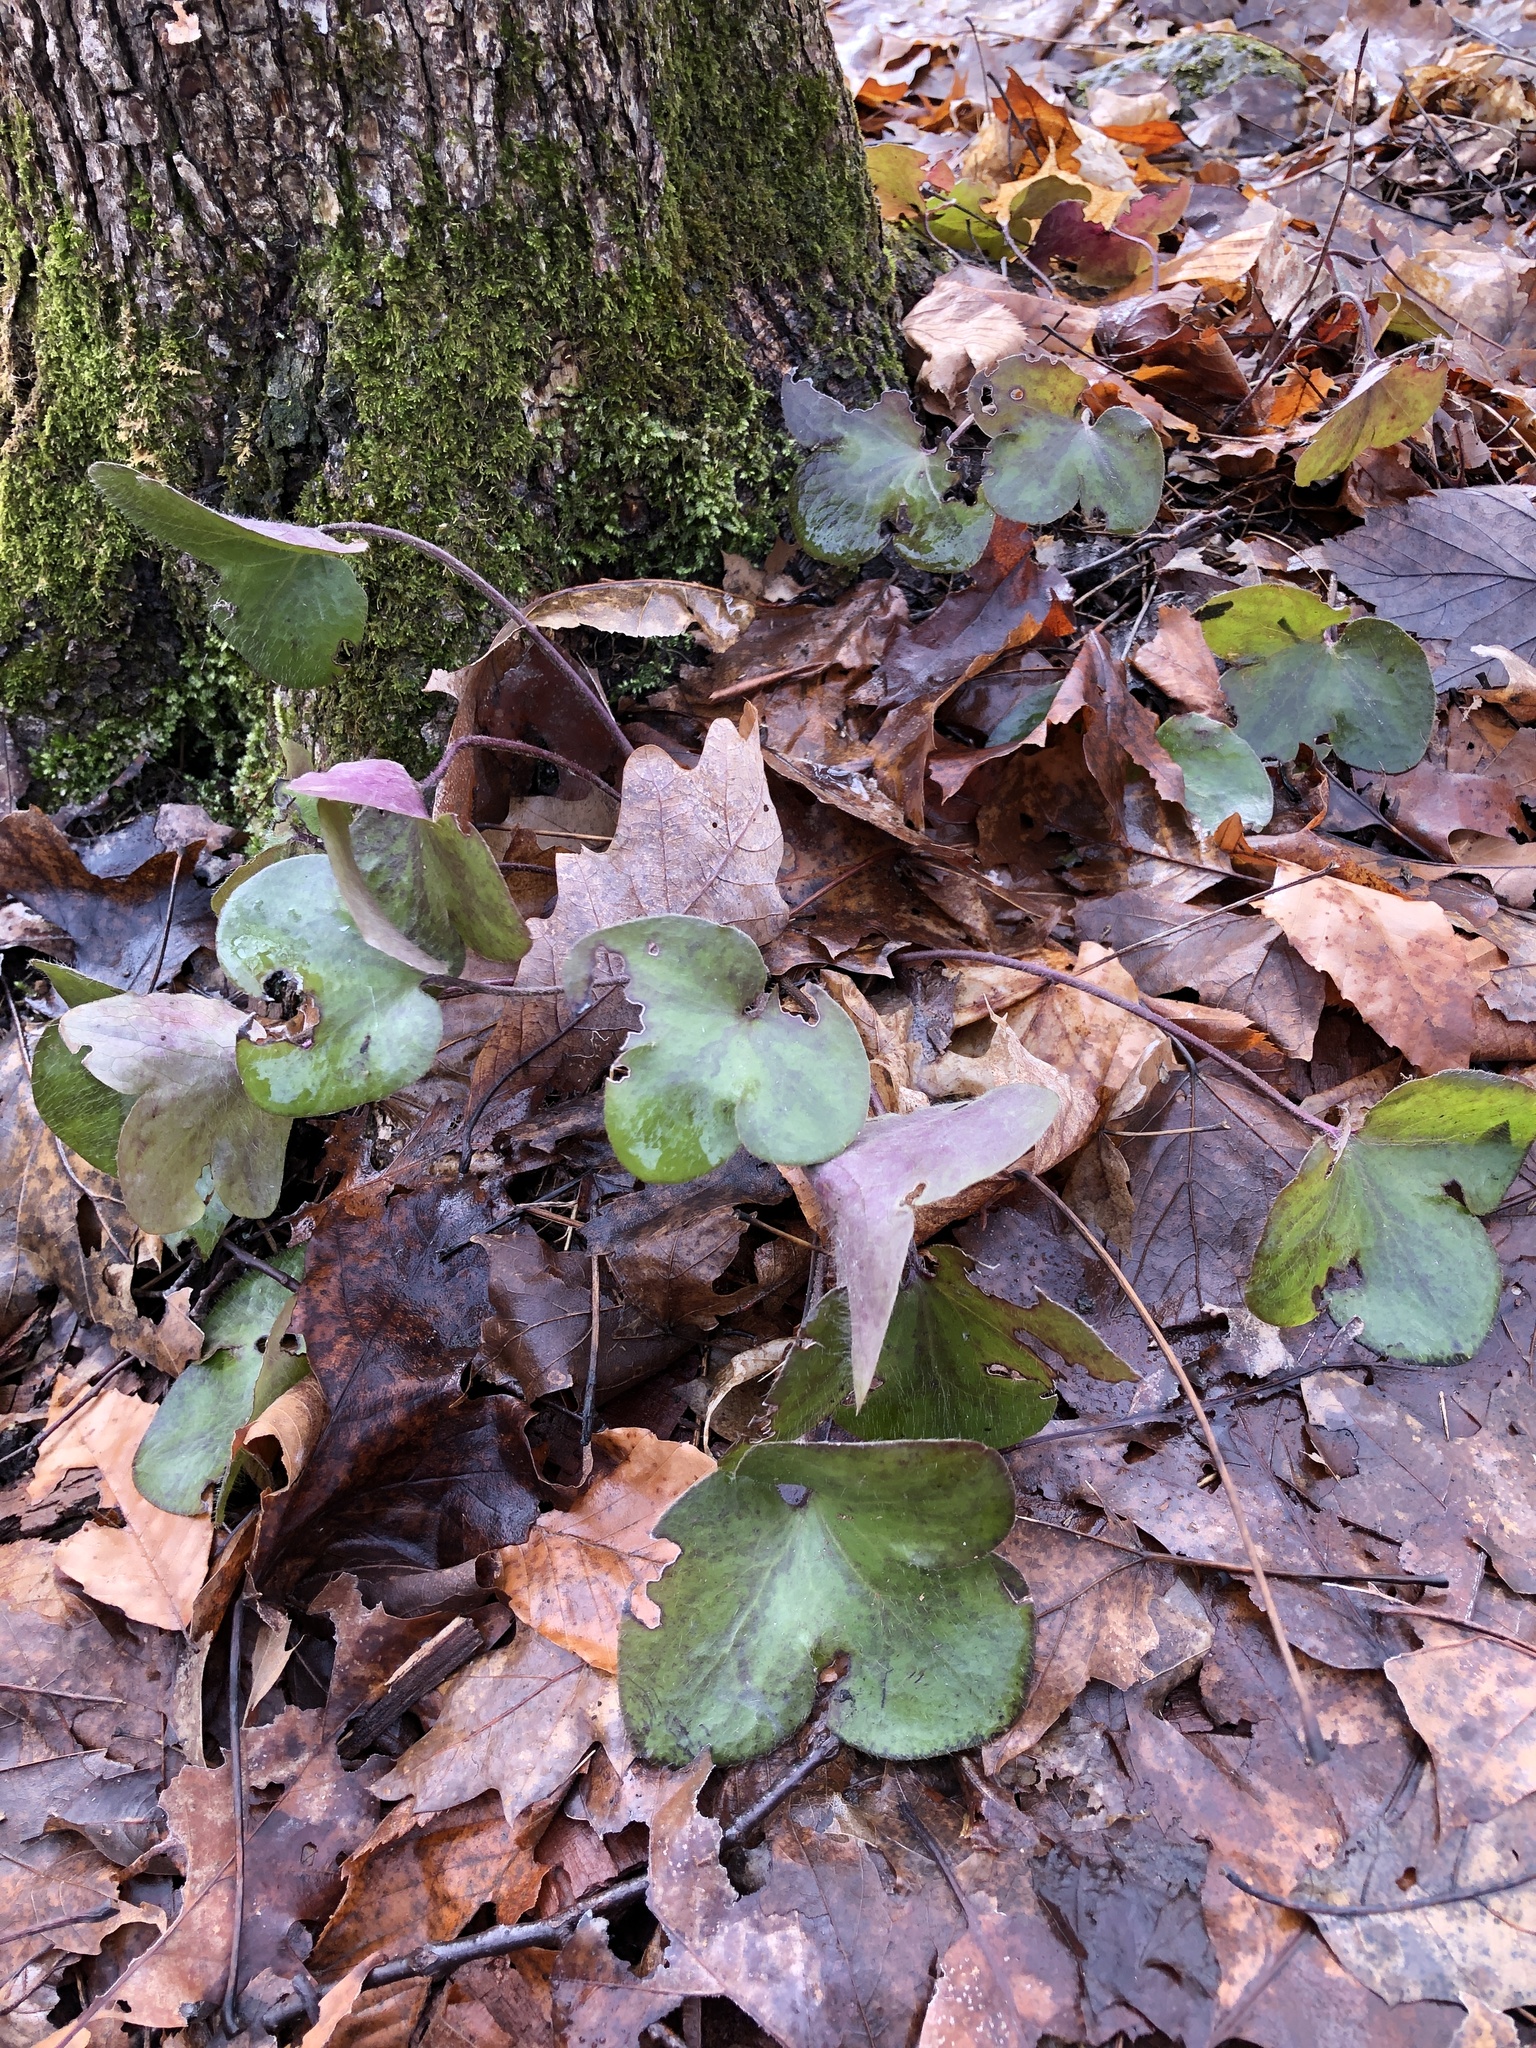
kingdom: Plantae
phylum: Tracheophyta
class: Magnoliopsida
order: Ranunculales
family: Ranunculaceae
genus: Hepatica
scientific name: Hepatica americana
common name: American hepatica
